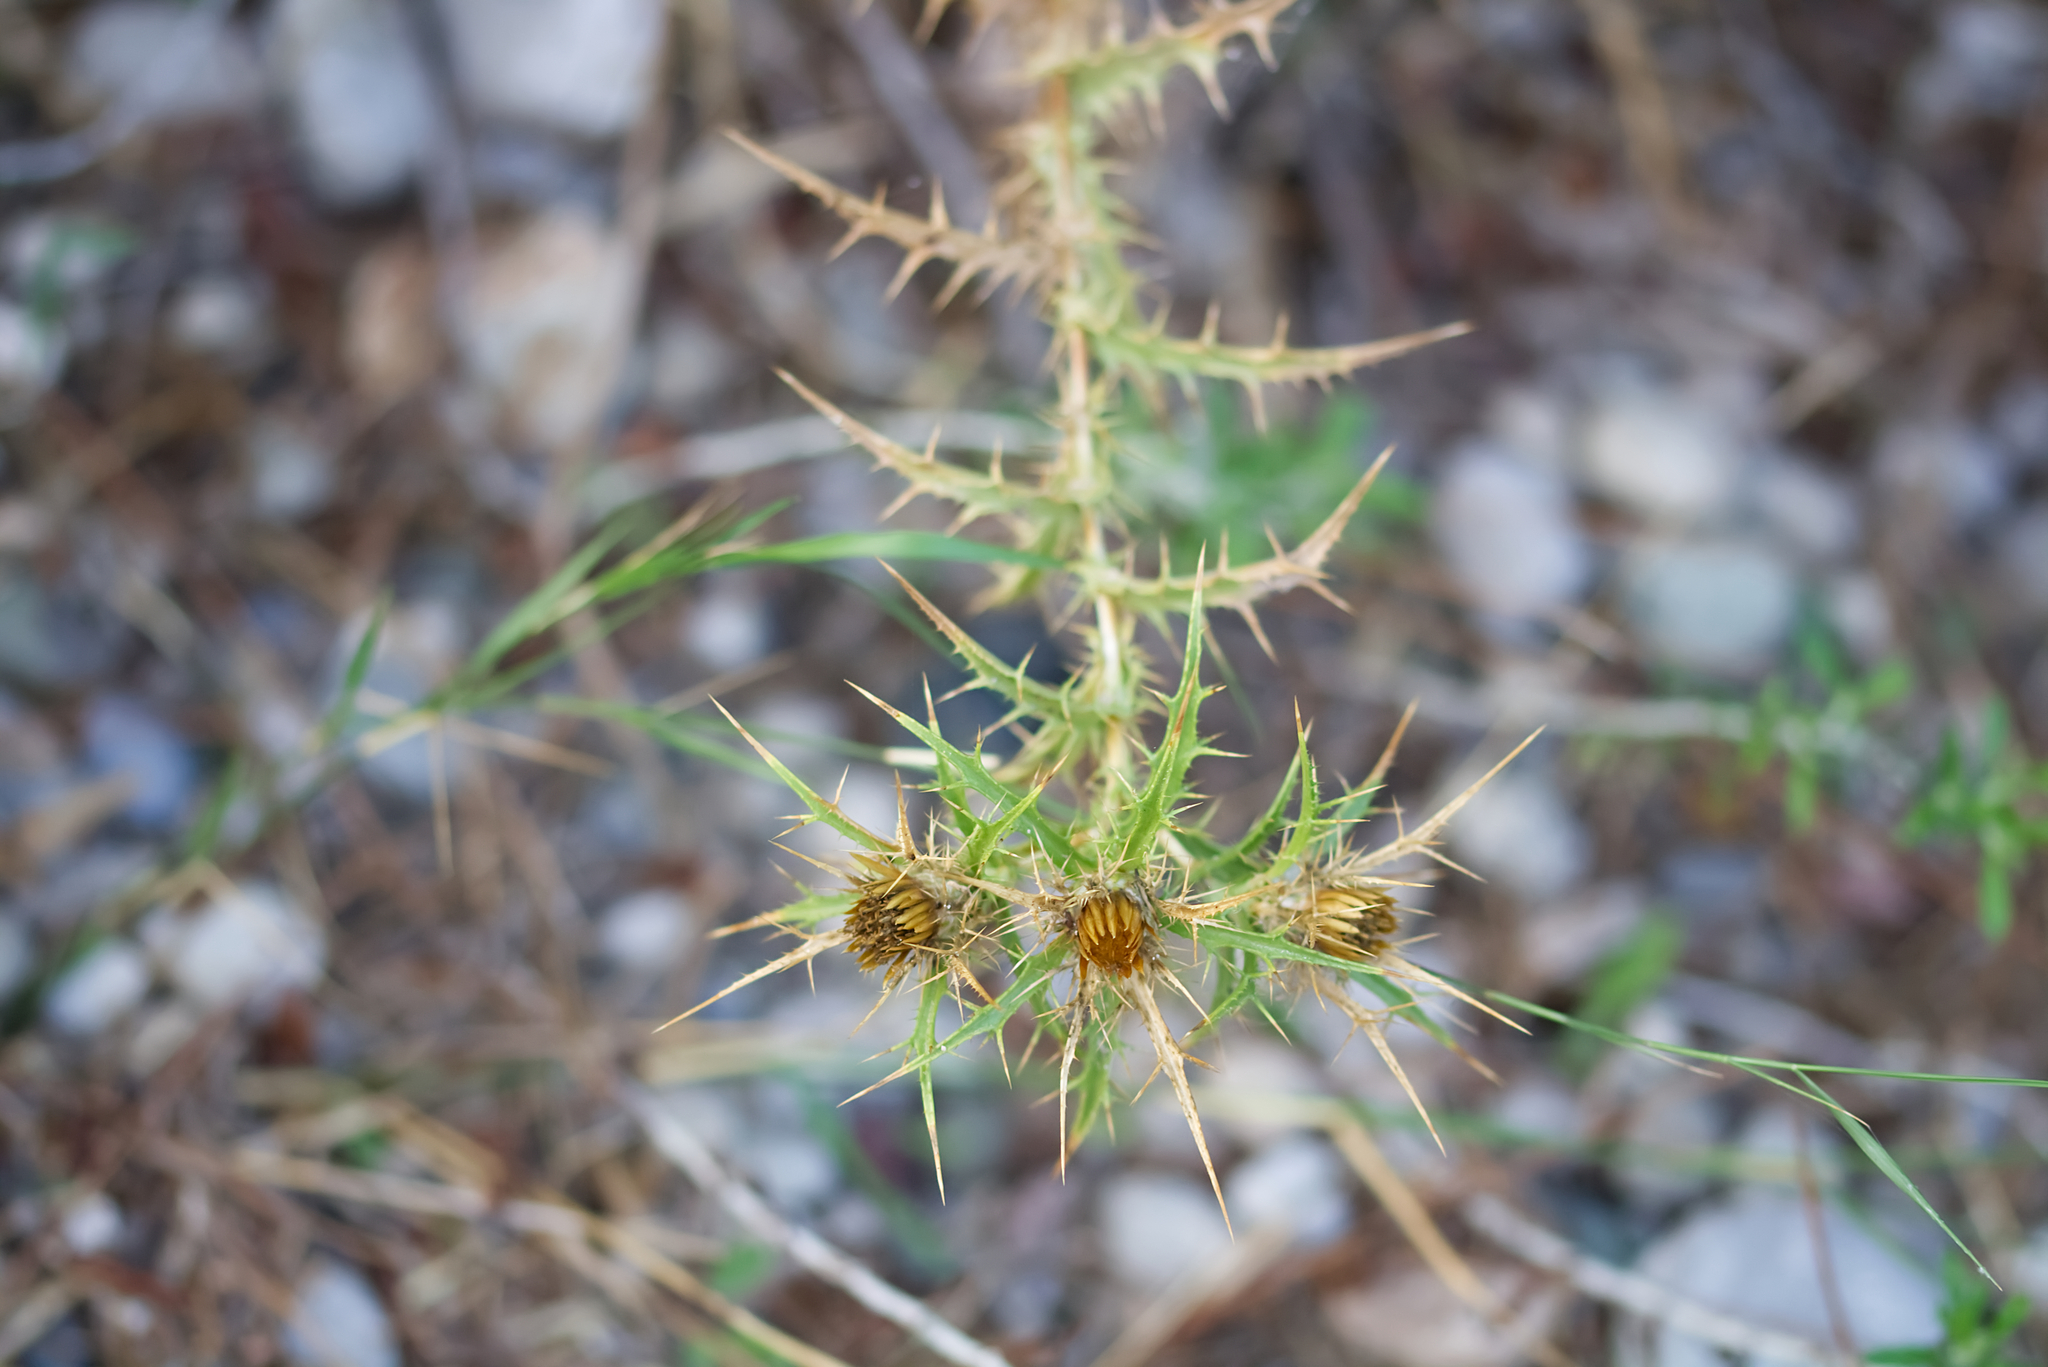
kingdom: Plantae
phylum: Tracheophyta
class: Magnoliopsida
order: Asterales
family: Asteraceae
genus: Carlina
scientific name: Carlina graeca
